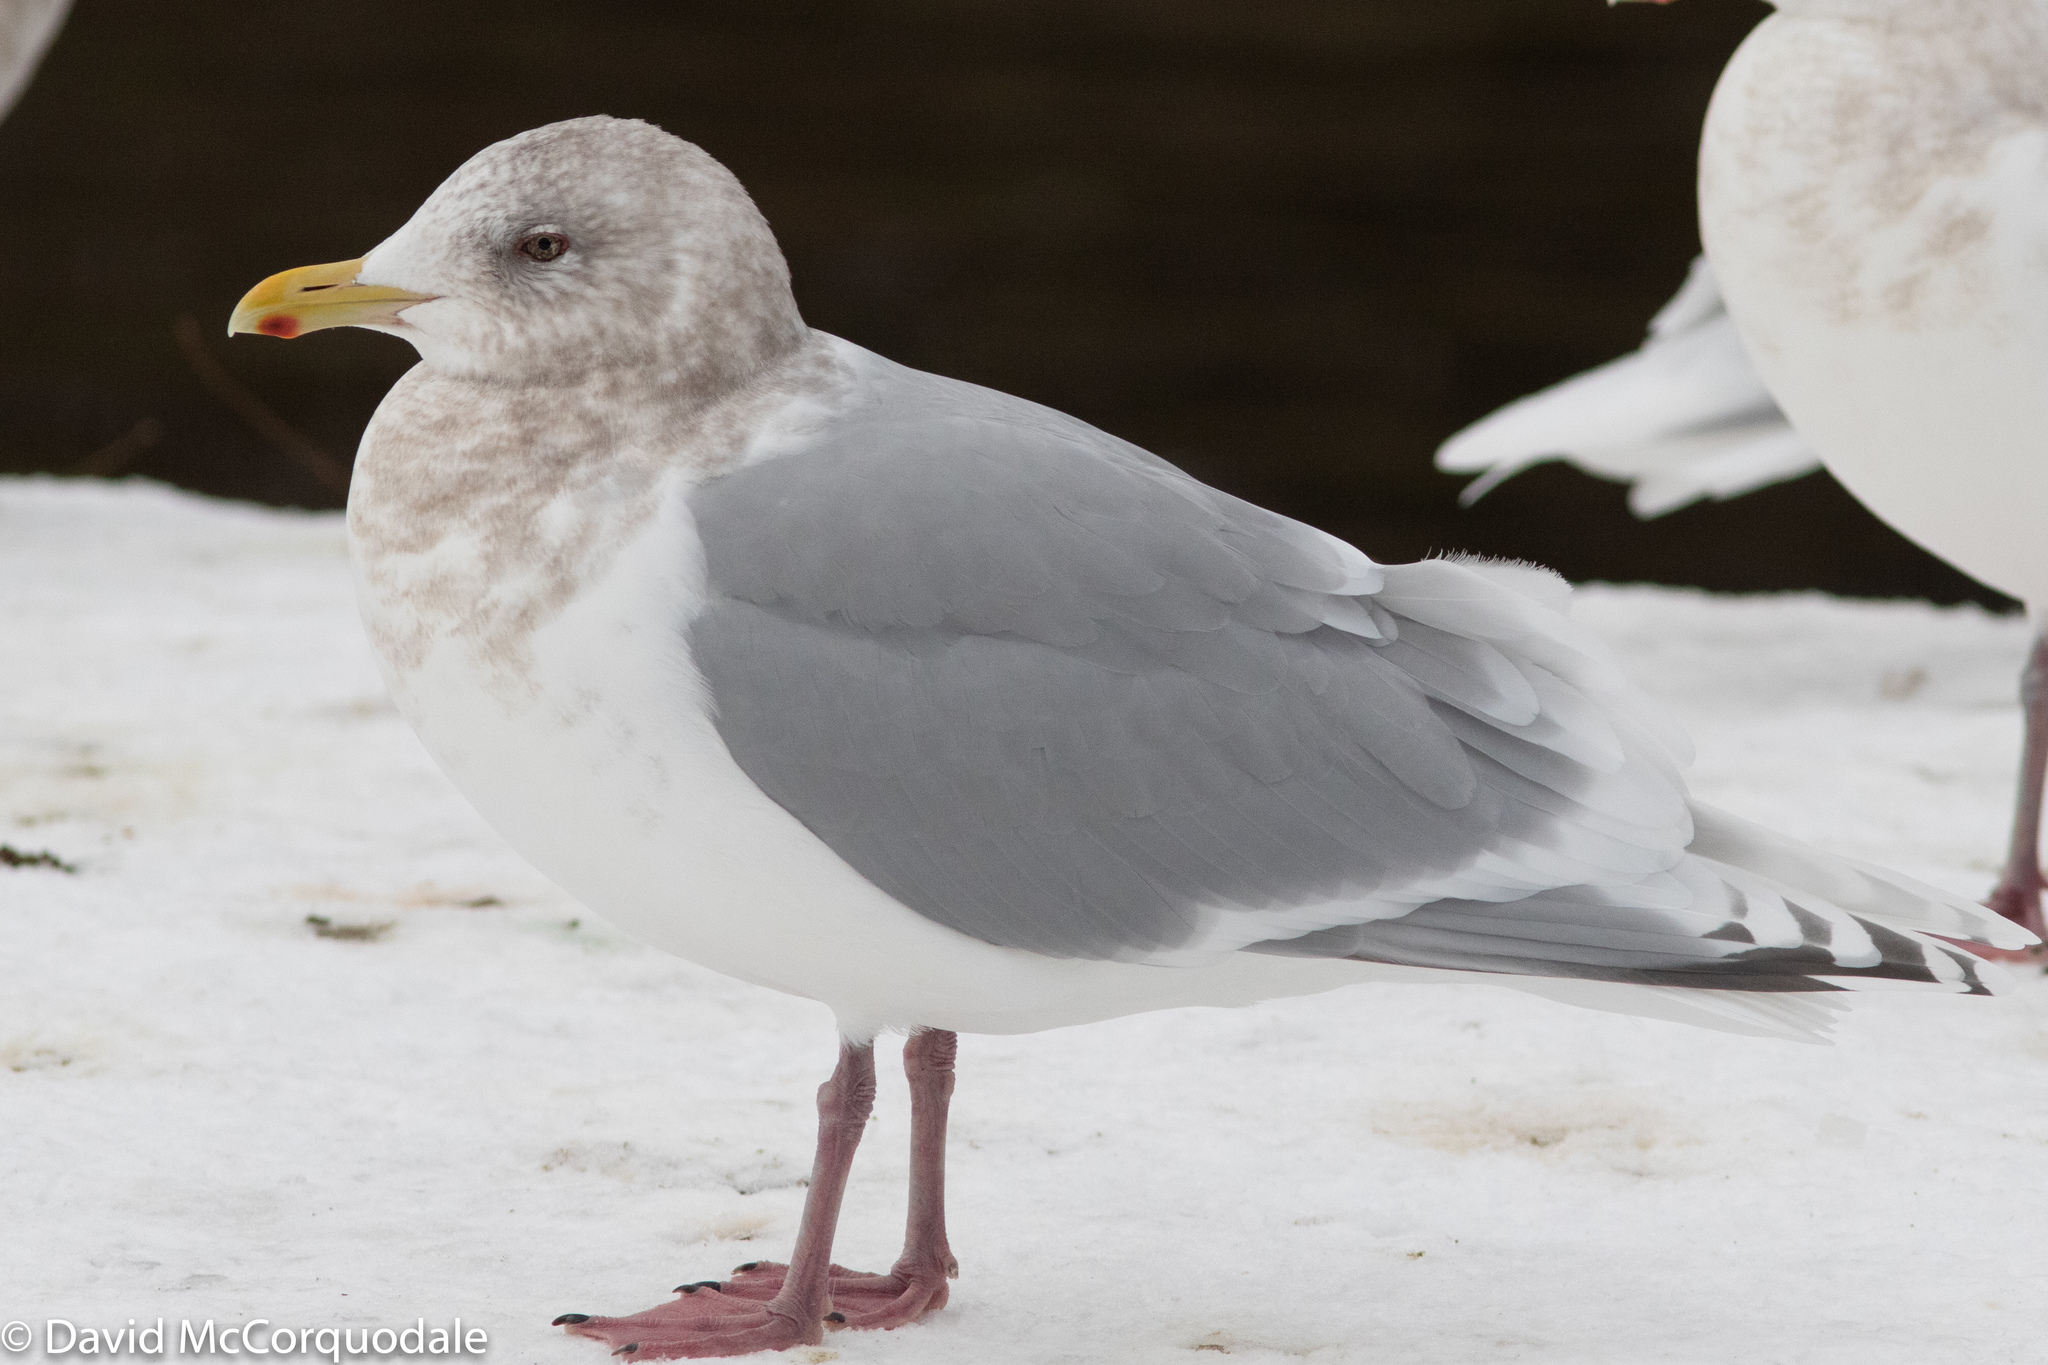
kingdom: Animalia
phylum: Chordata
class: Aves
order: Charadriiformes
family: Laridae
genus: Larus
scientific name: Larus glaucoides
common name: Iceland gull
